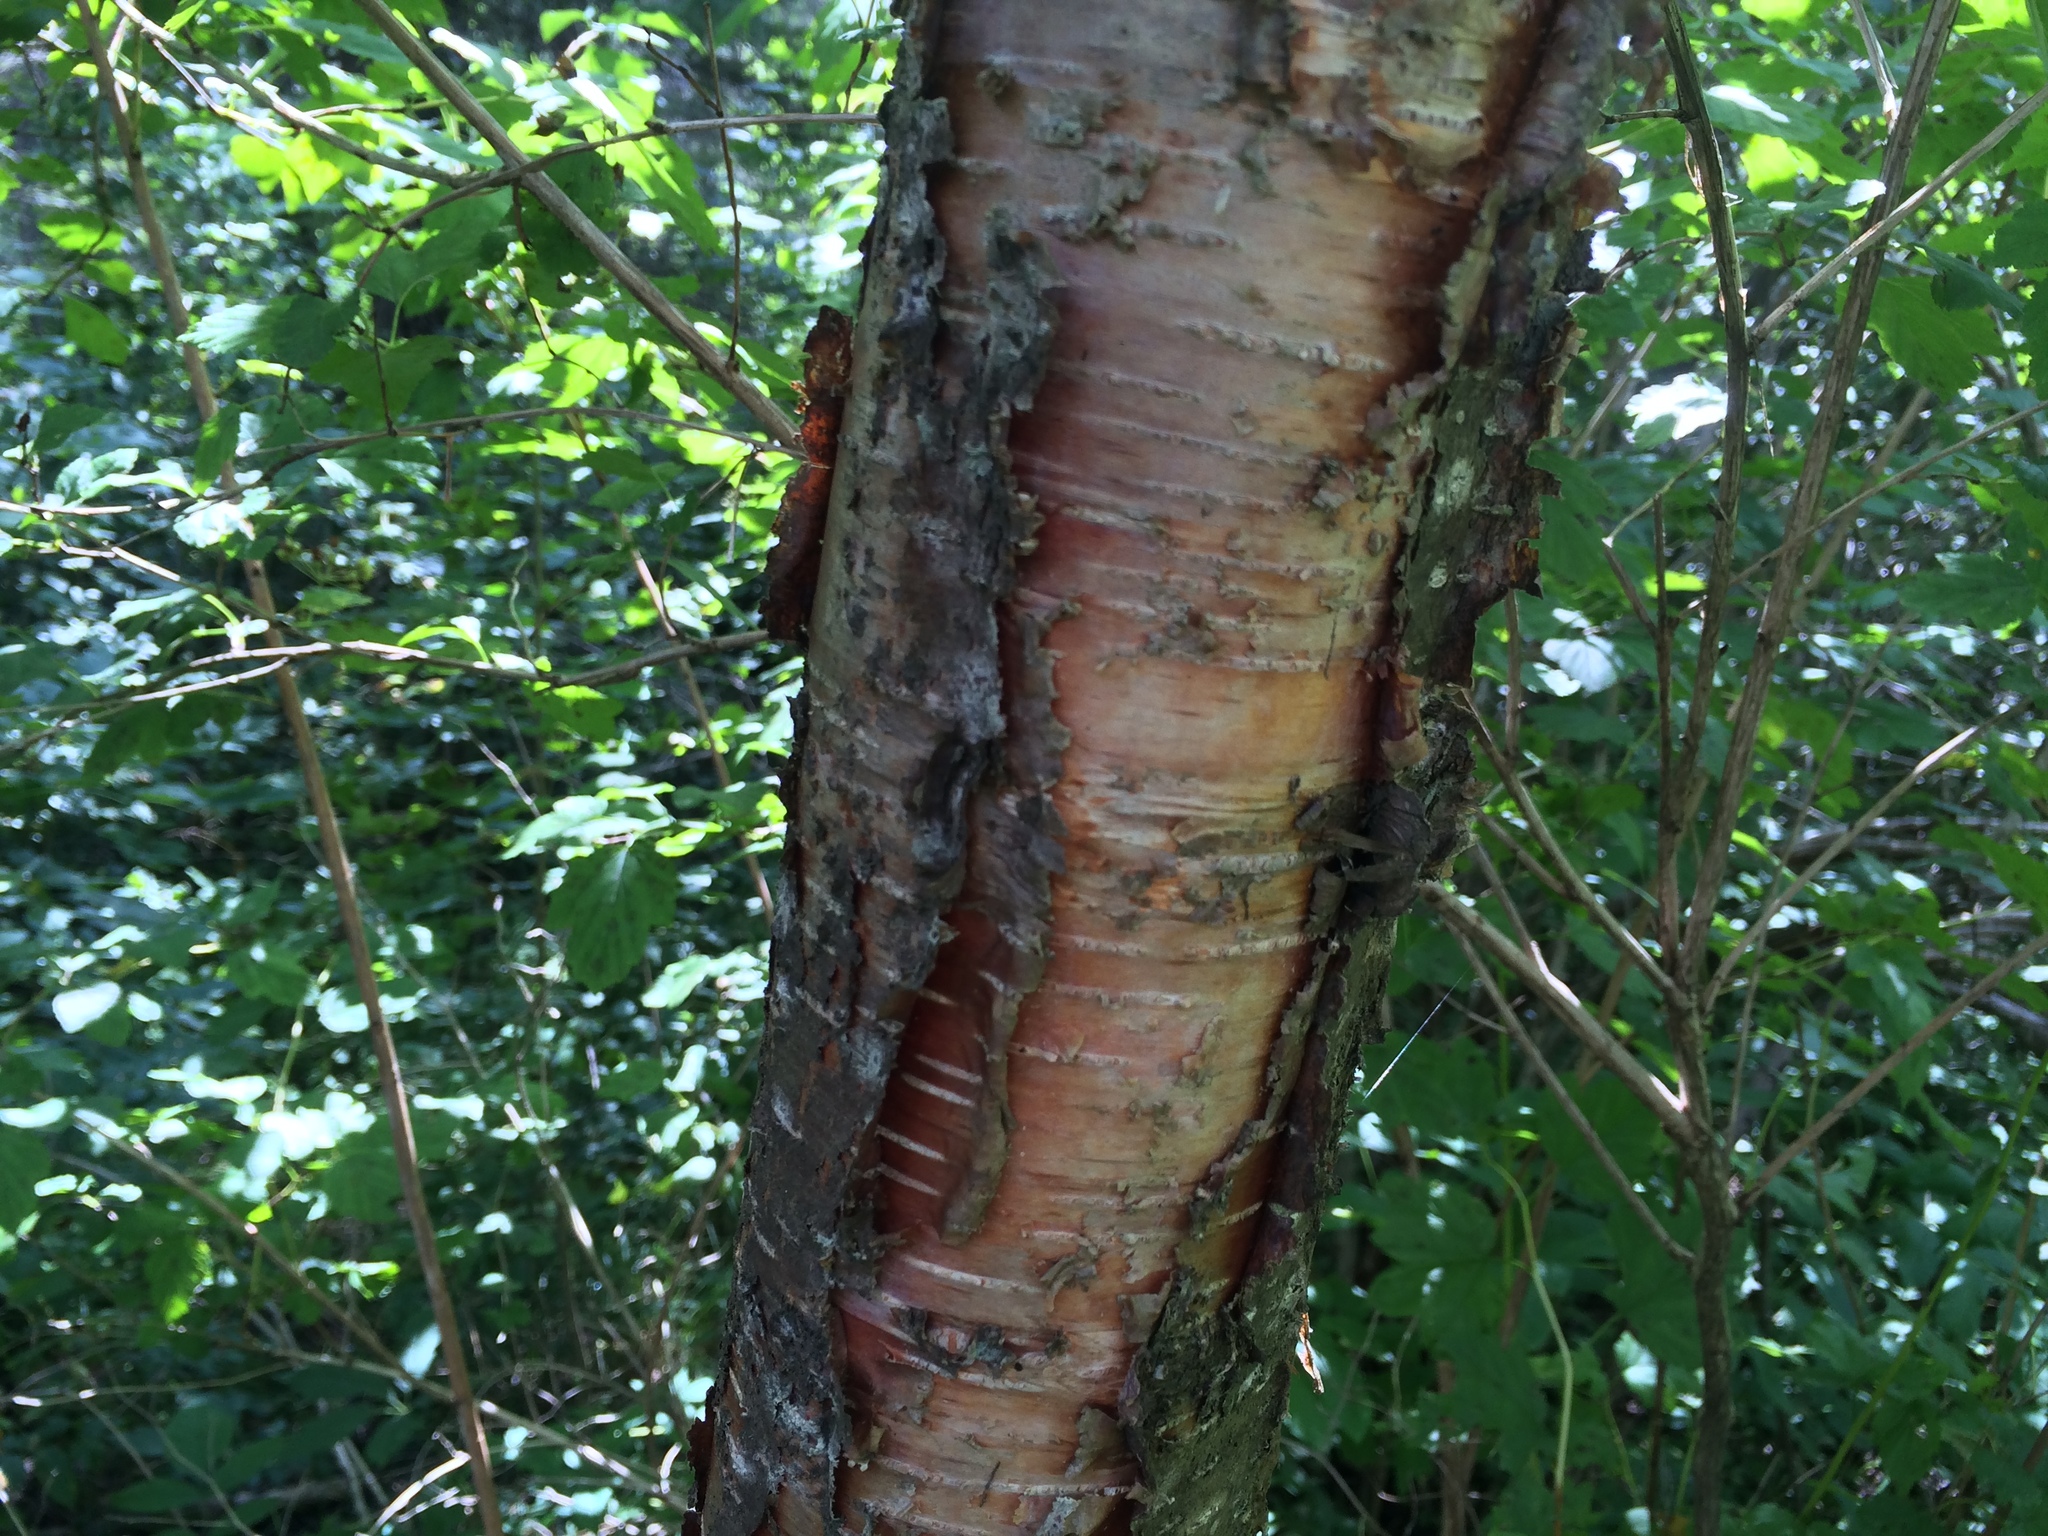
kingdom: Plantae
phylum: Tracheophyta
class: Magnoliopsida
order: Fagales
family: Betulaceae
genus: Betula
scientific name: Betula alleghaniensis
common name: Yellow birch
